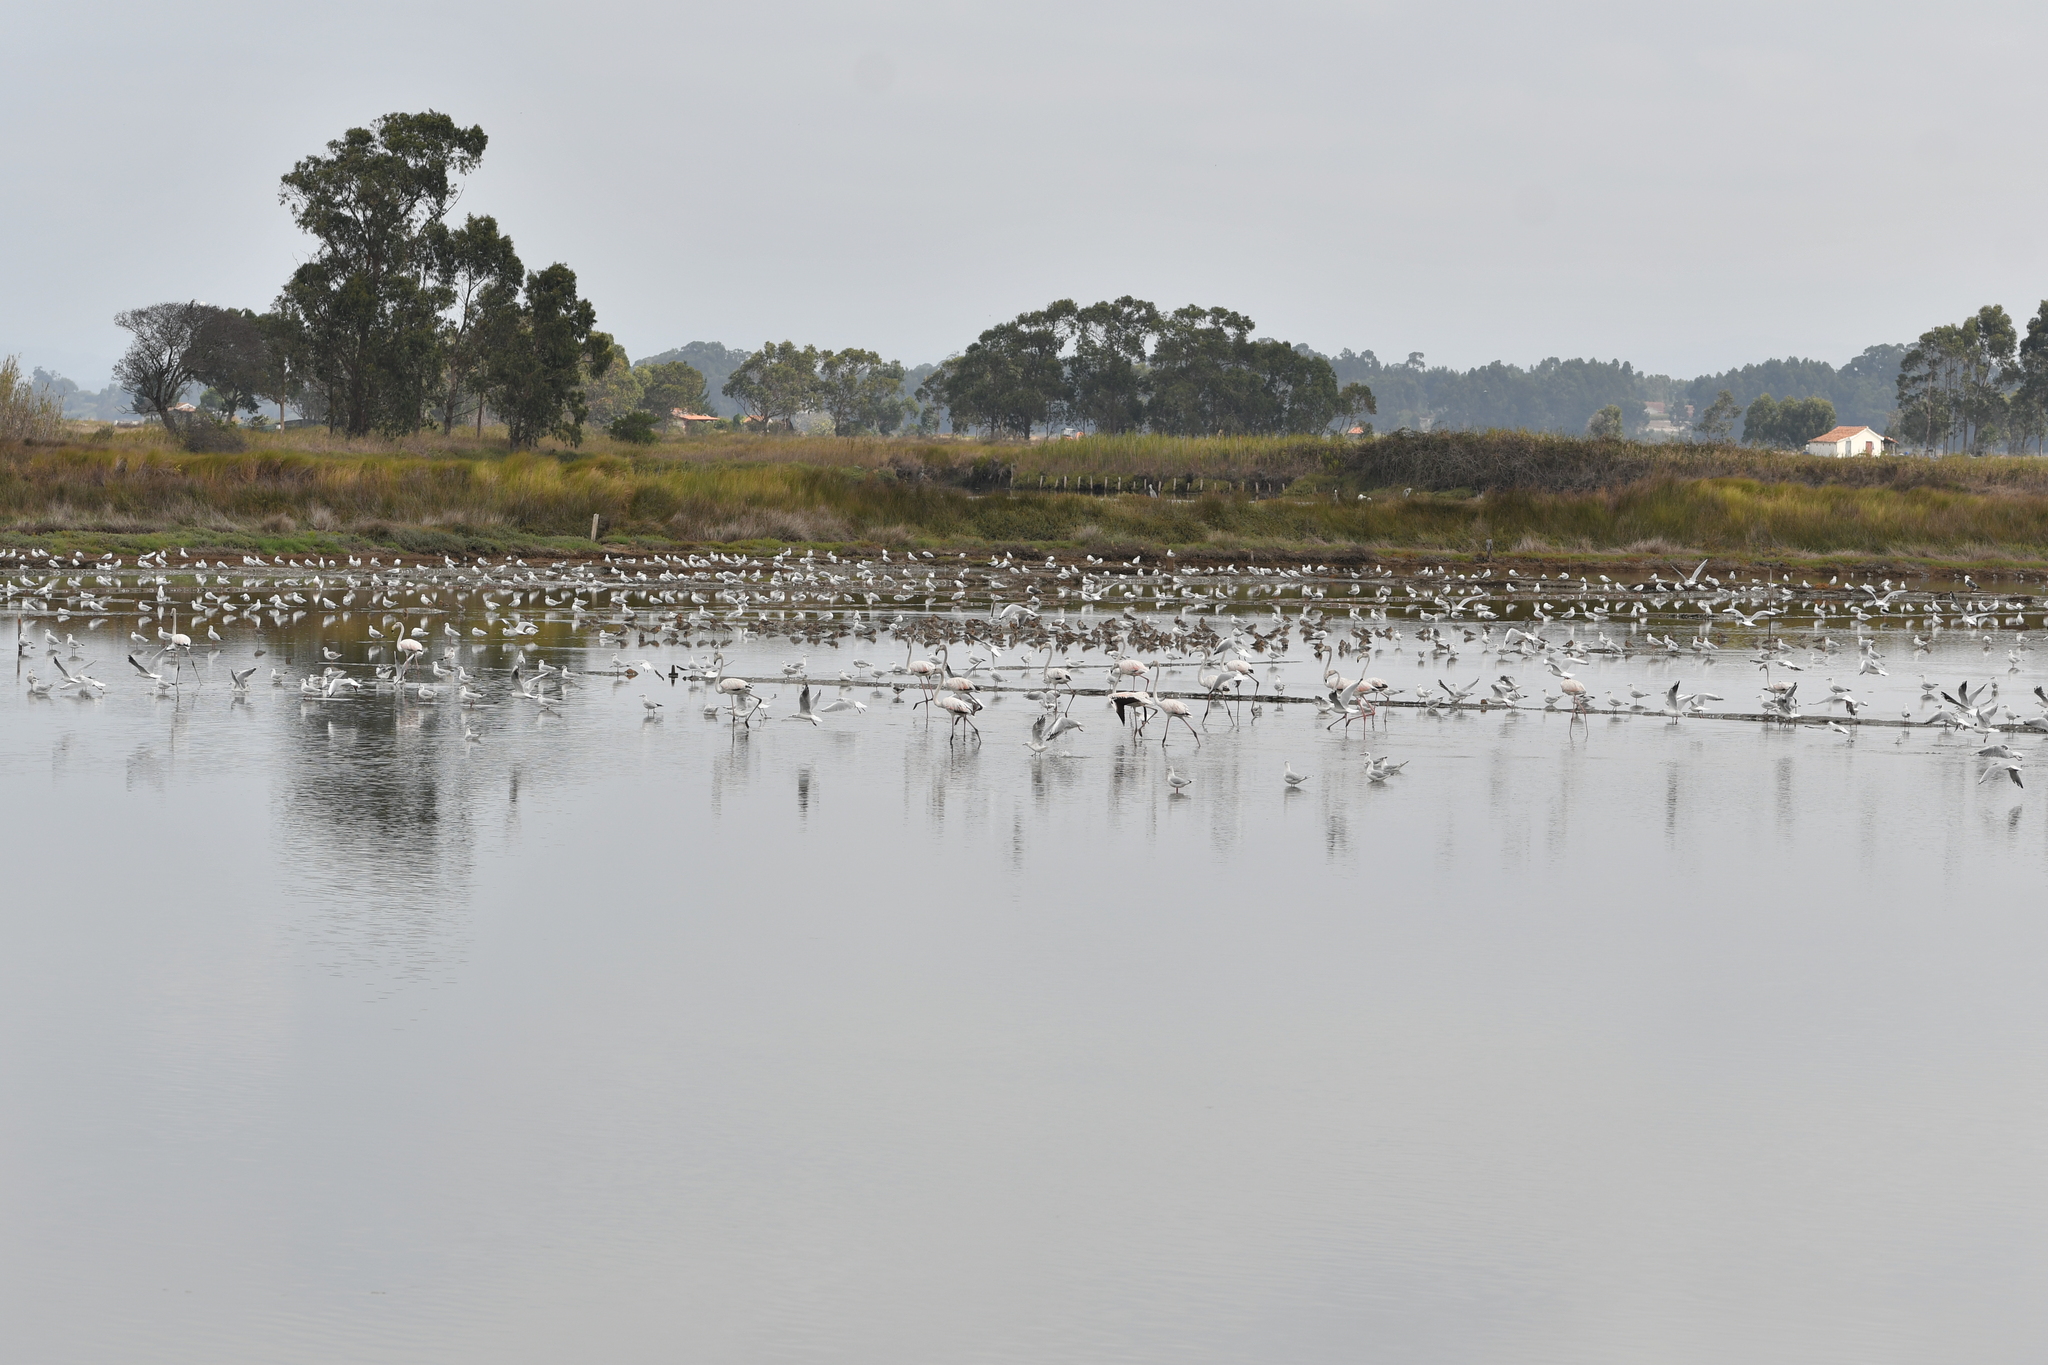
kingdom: Animalia
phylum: Chordata
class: Aves
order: Phoenicopteriformes
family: Phoenicopteridae
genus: Phoenicopterus
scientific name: Phoenicopterus roseus
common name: Greater flamingo
